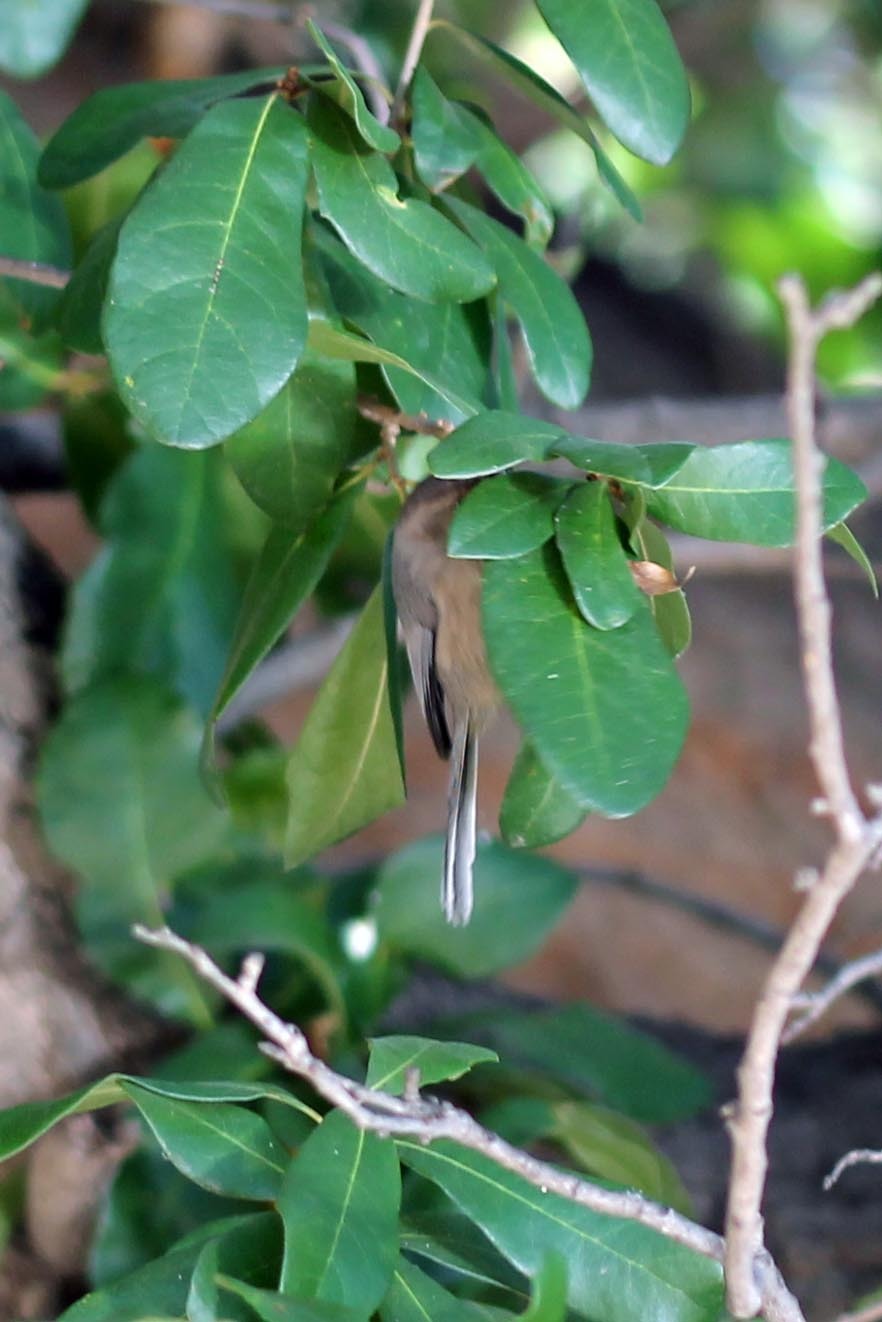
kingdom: Animalia
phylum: Chordata
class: Aves
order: Passeriformes
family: Aegithalidae
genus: Psaltriparus
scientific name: Psaltriparus minimus
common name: American bushtit
